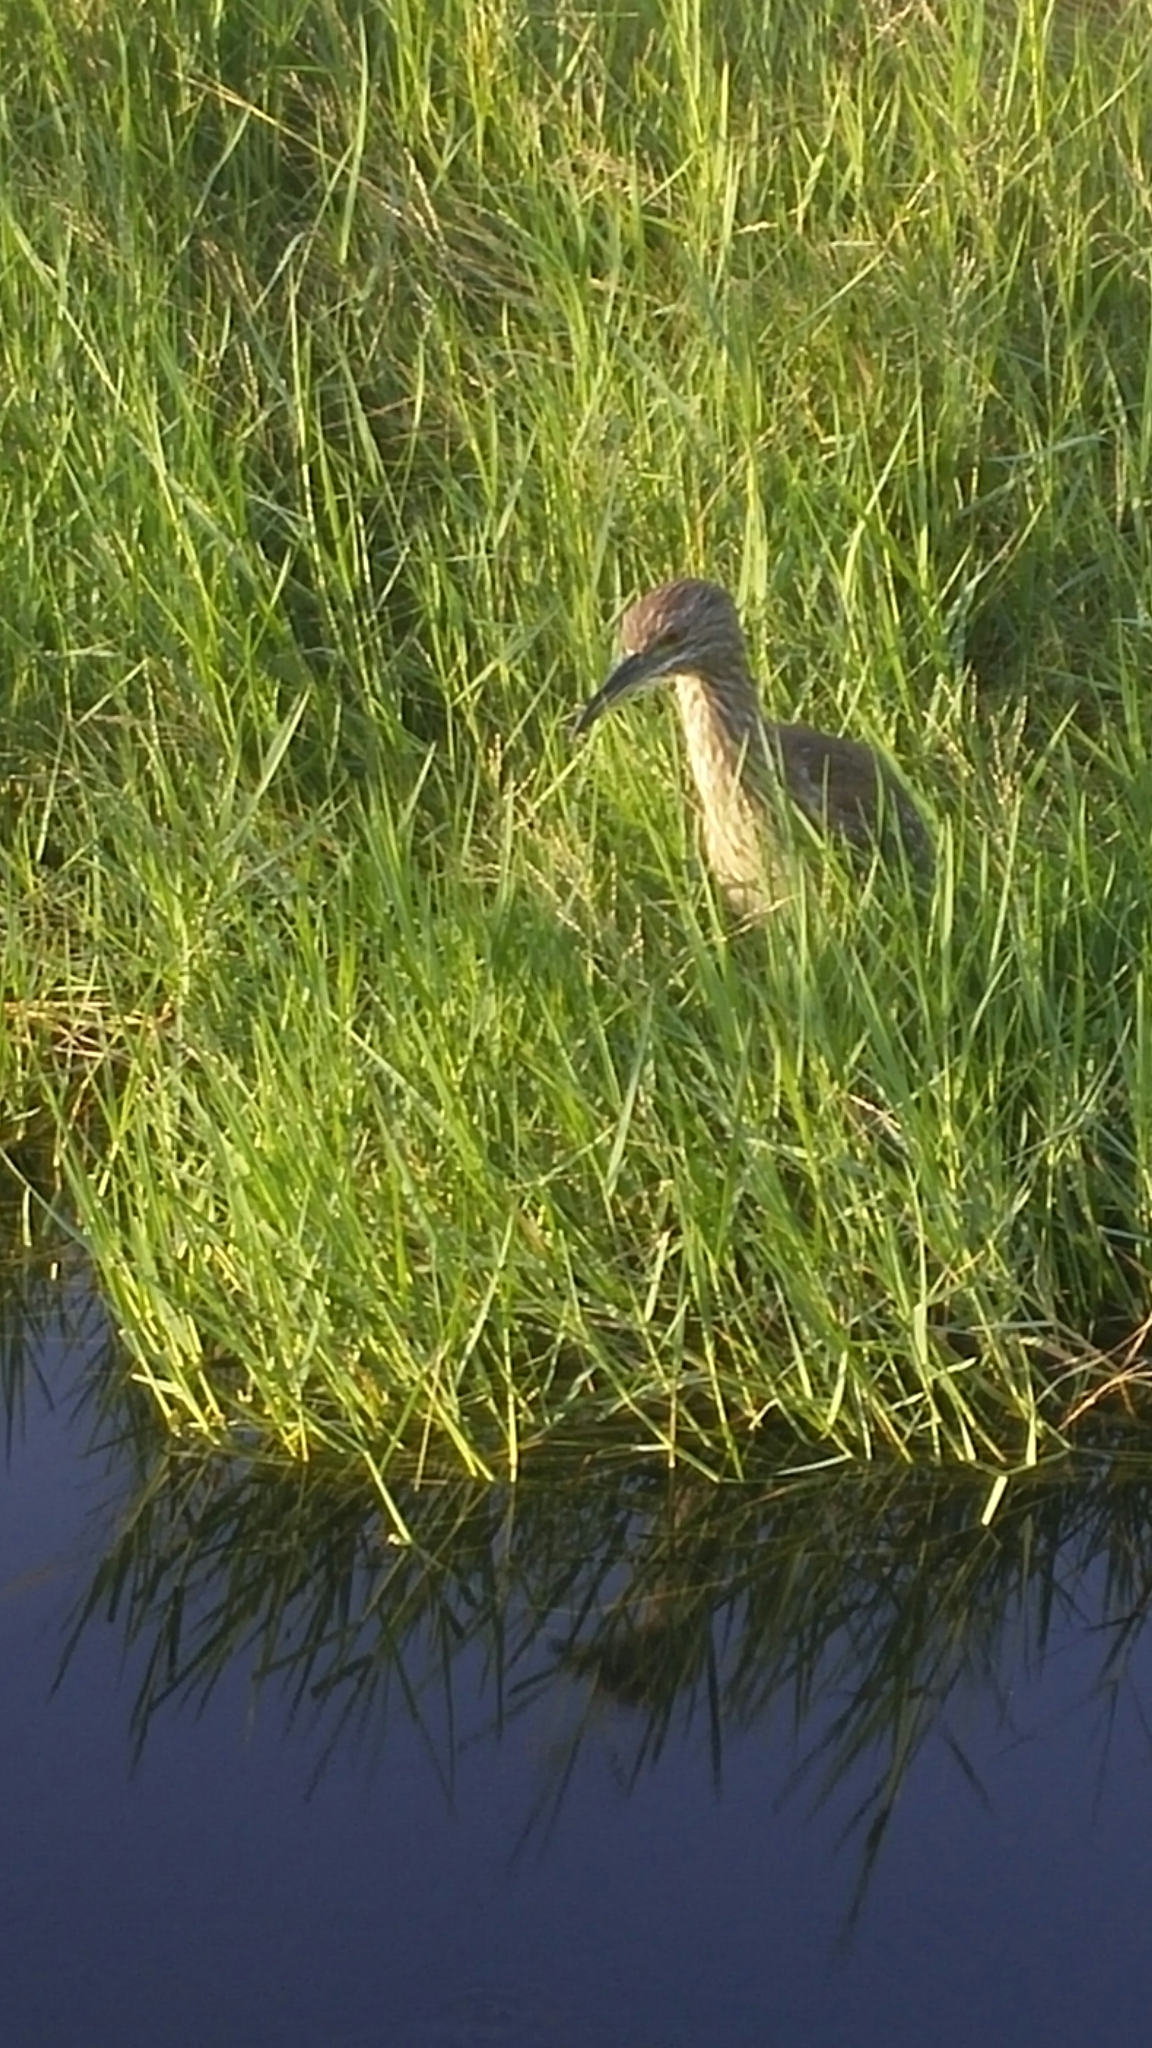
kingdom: Animalia
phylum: Chordata
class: Aves
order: Pelecaniformes
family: Ardeidae
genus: Nycticorax
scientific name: Nycticorax nycticorax
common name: Black-crowned night heron
